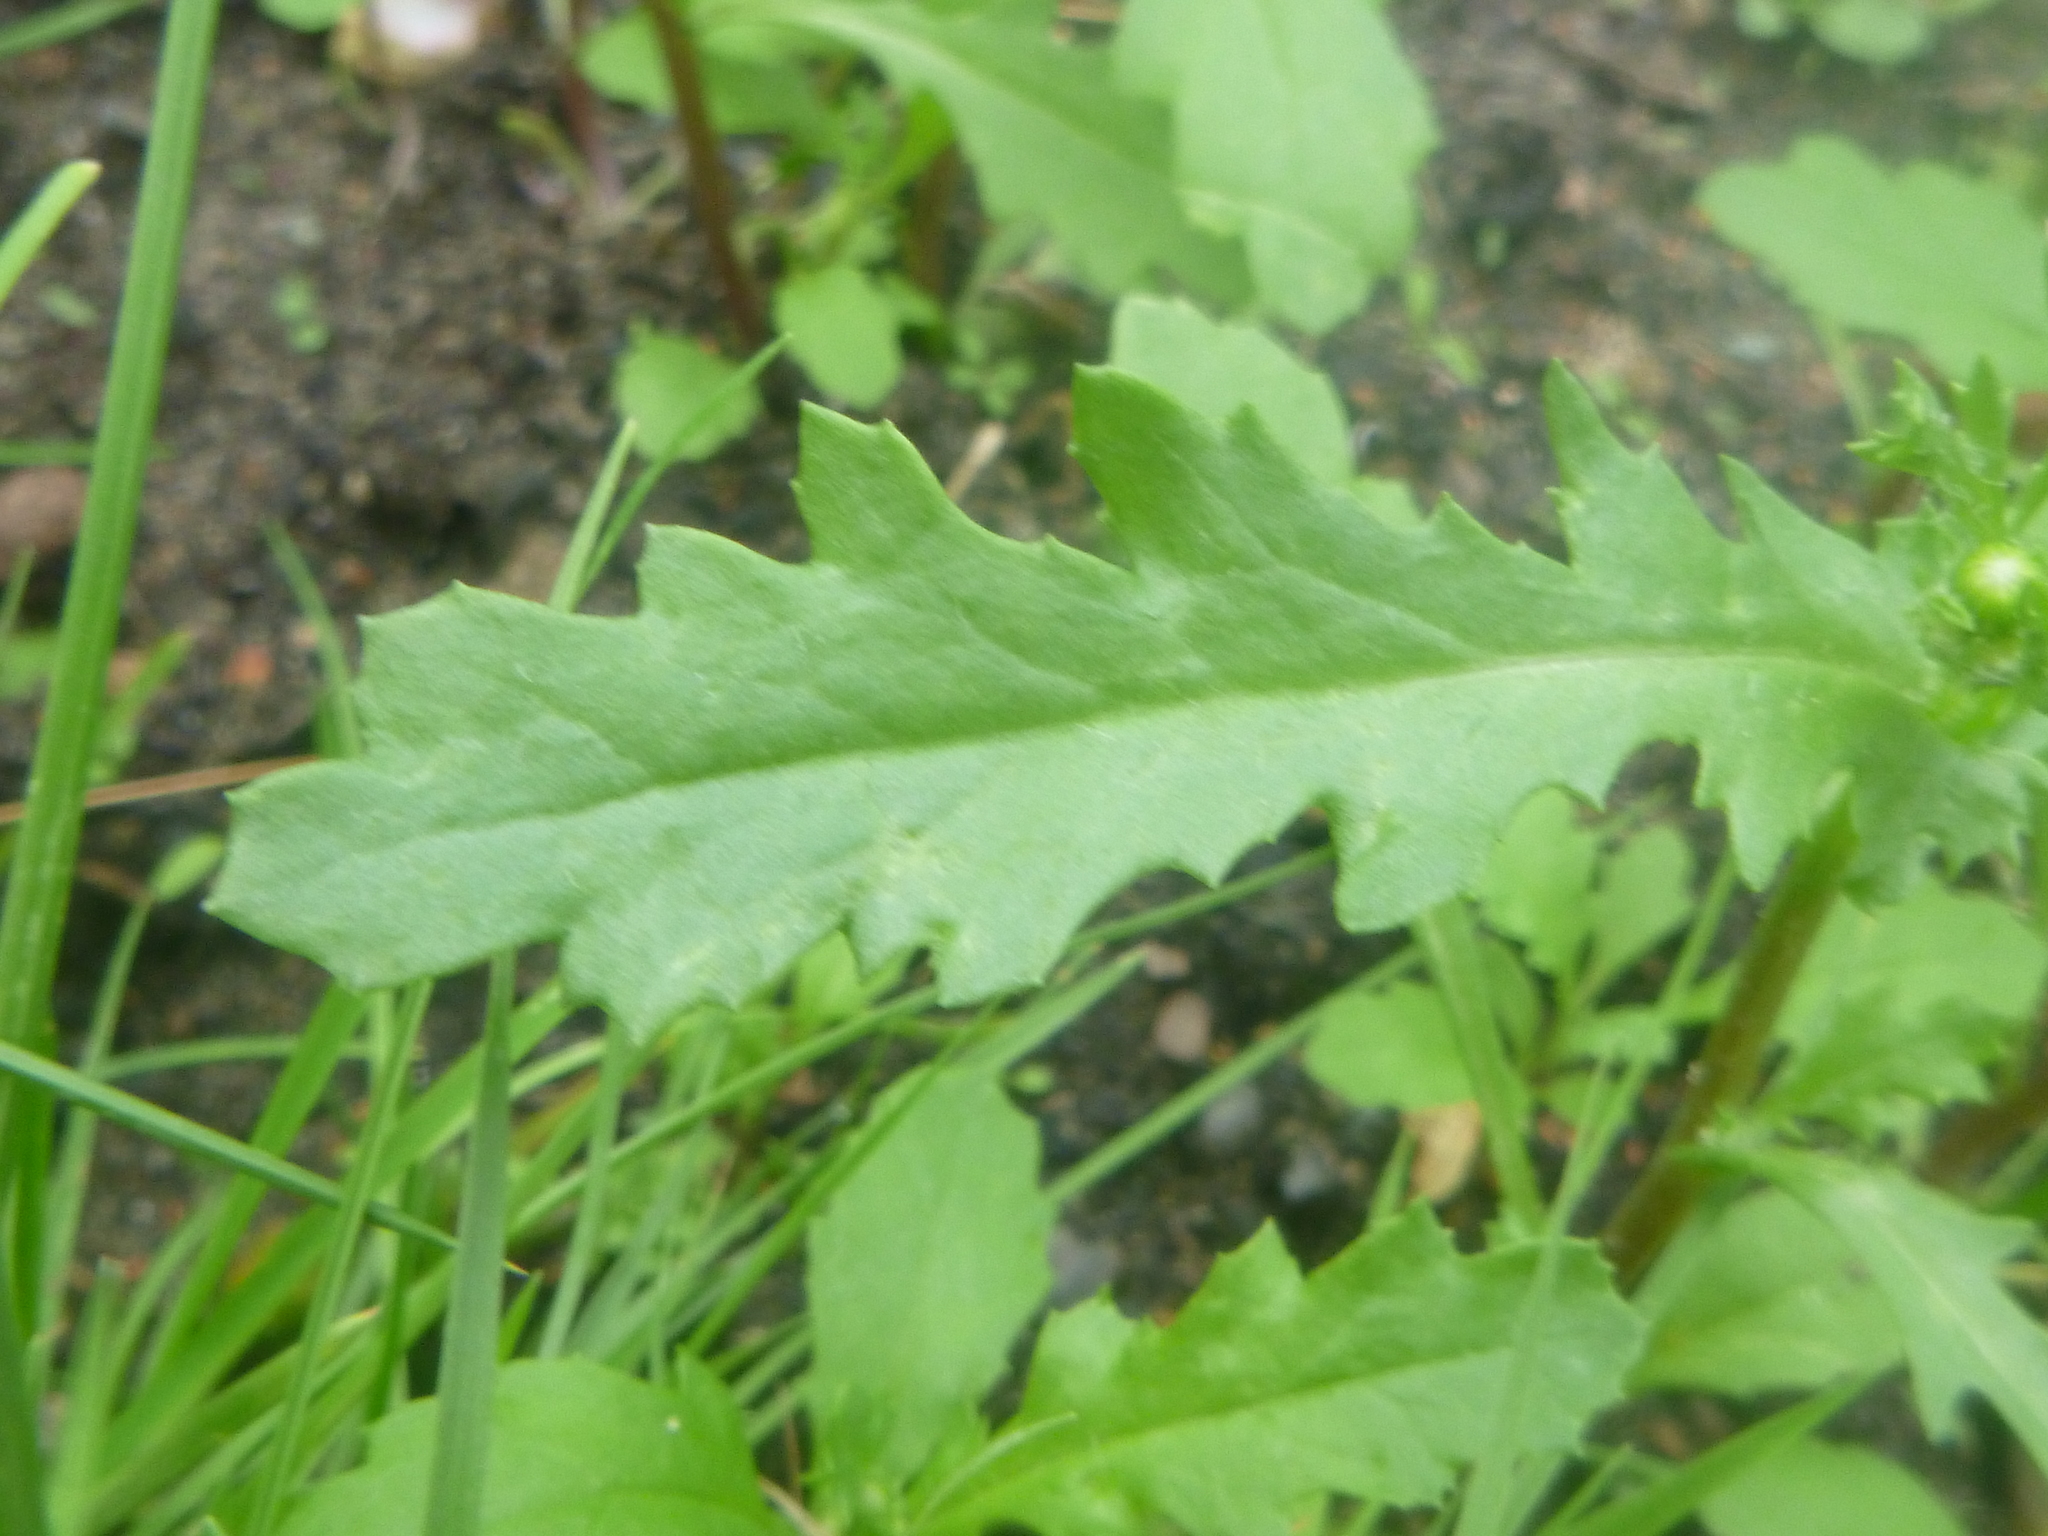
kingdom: Plantae
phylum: Tracheophyta
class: Magnoliopsida
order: Asterales
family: Asteraceae
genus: Senecio
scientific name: Senecio vulgaris
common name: Old-man-in-the-spring
